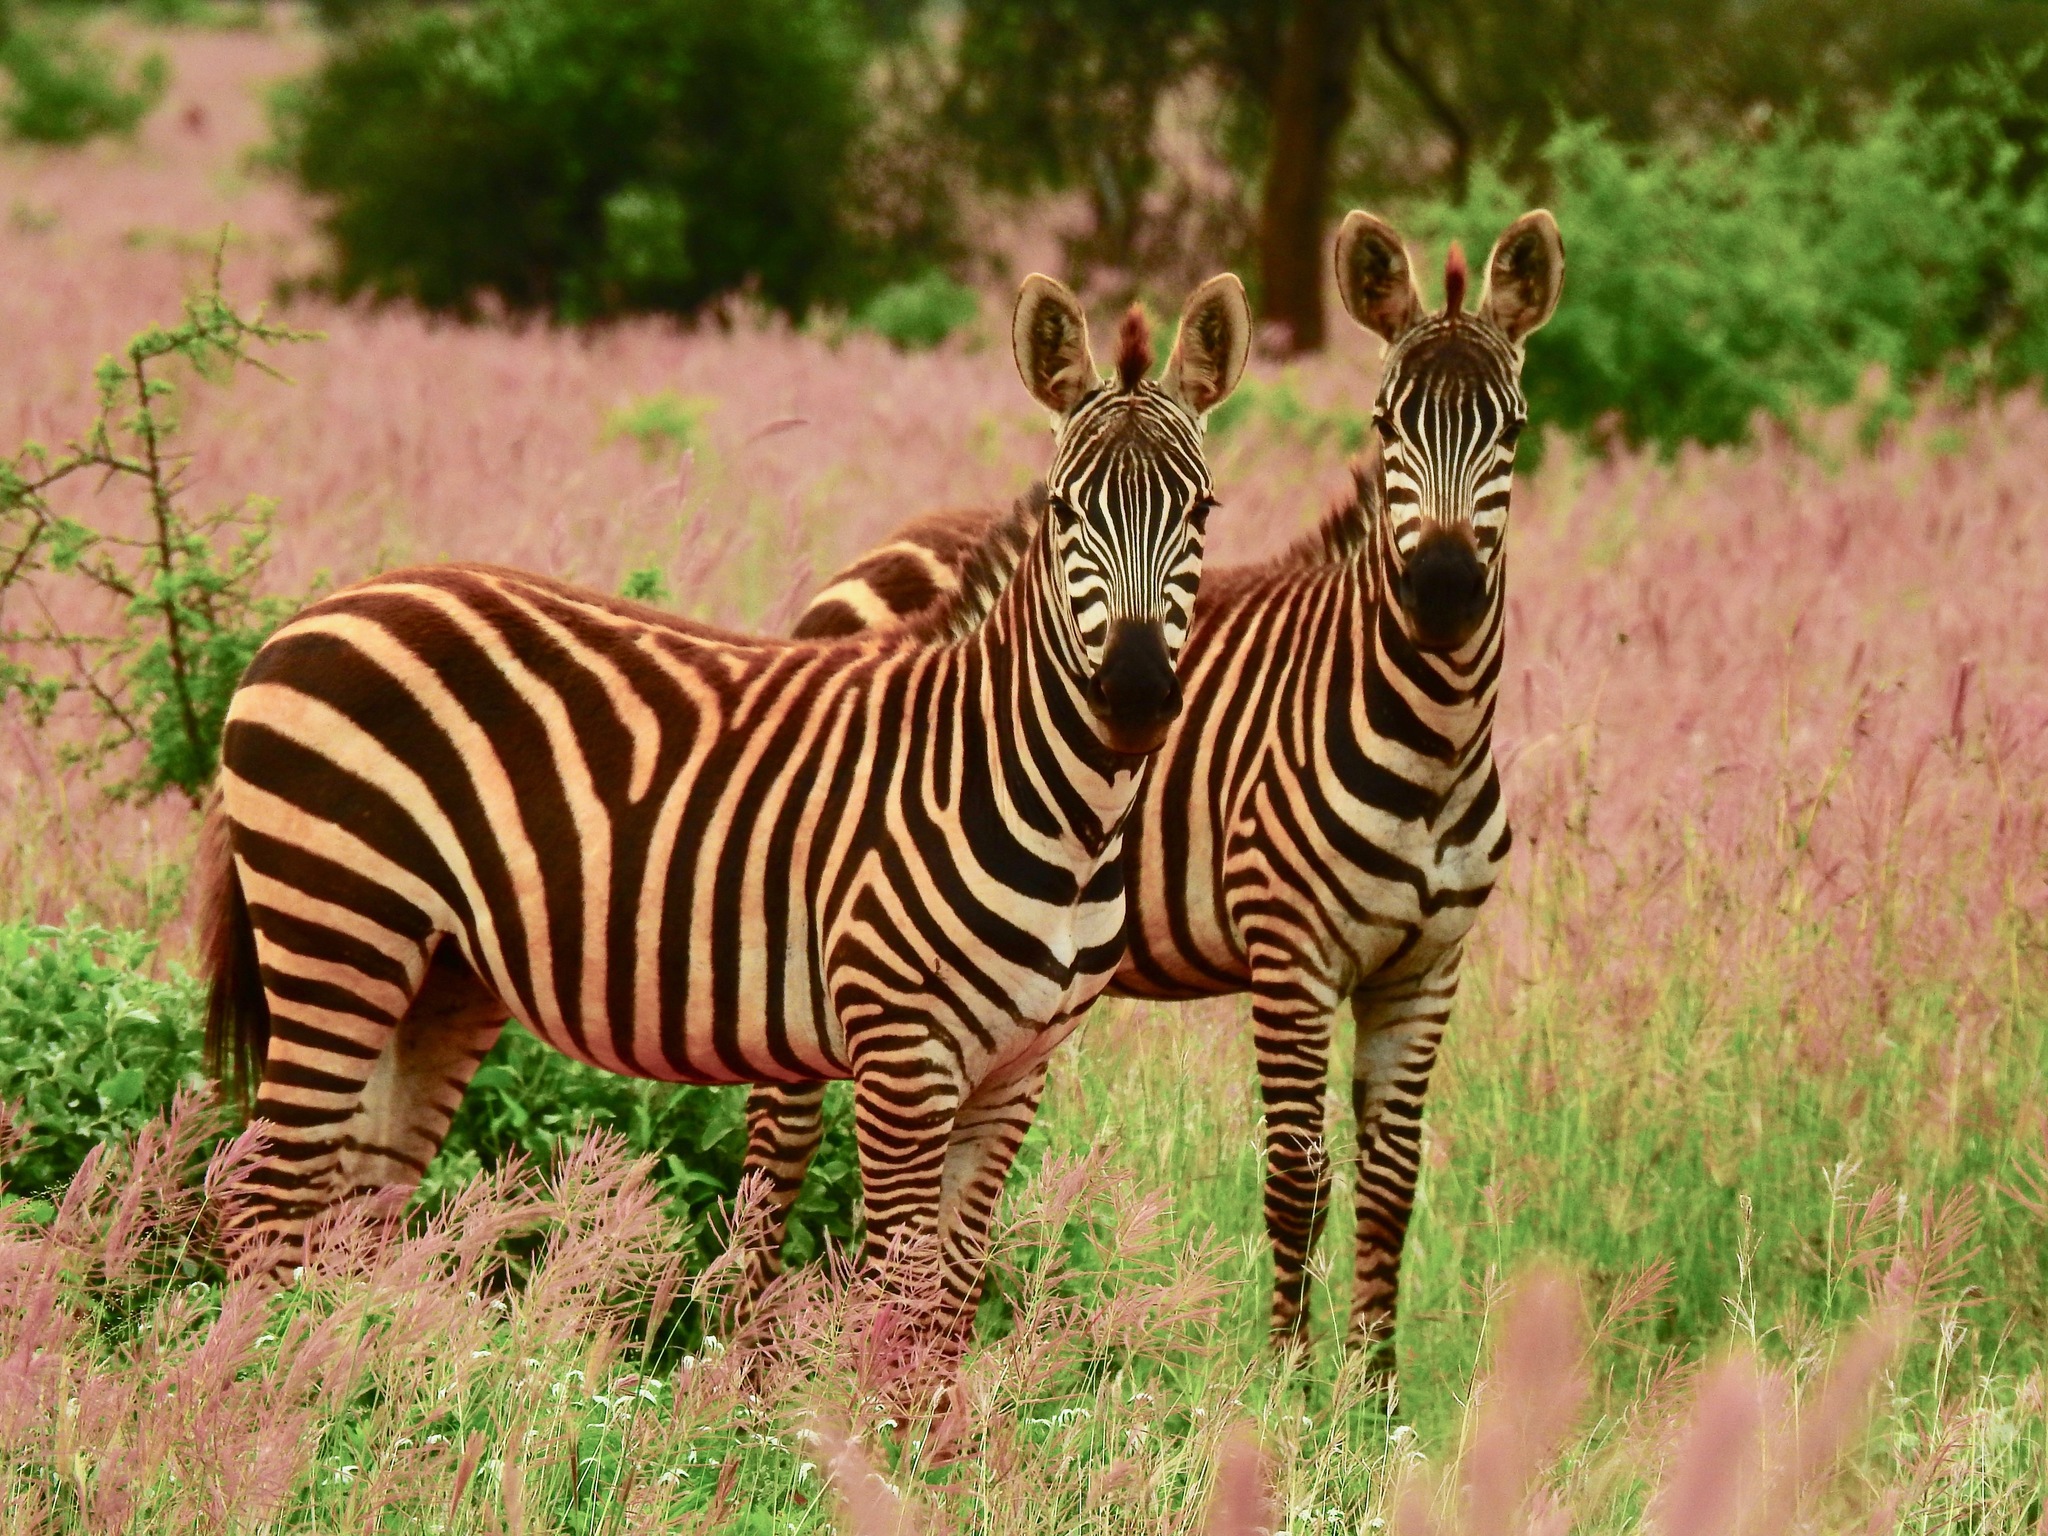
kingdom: Animalia
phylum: Chordata
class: Mammalia
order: Perissodactyla
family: Equidae
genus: Equus
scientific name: Equus quagga
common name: Plains zebra
